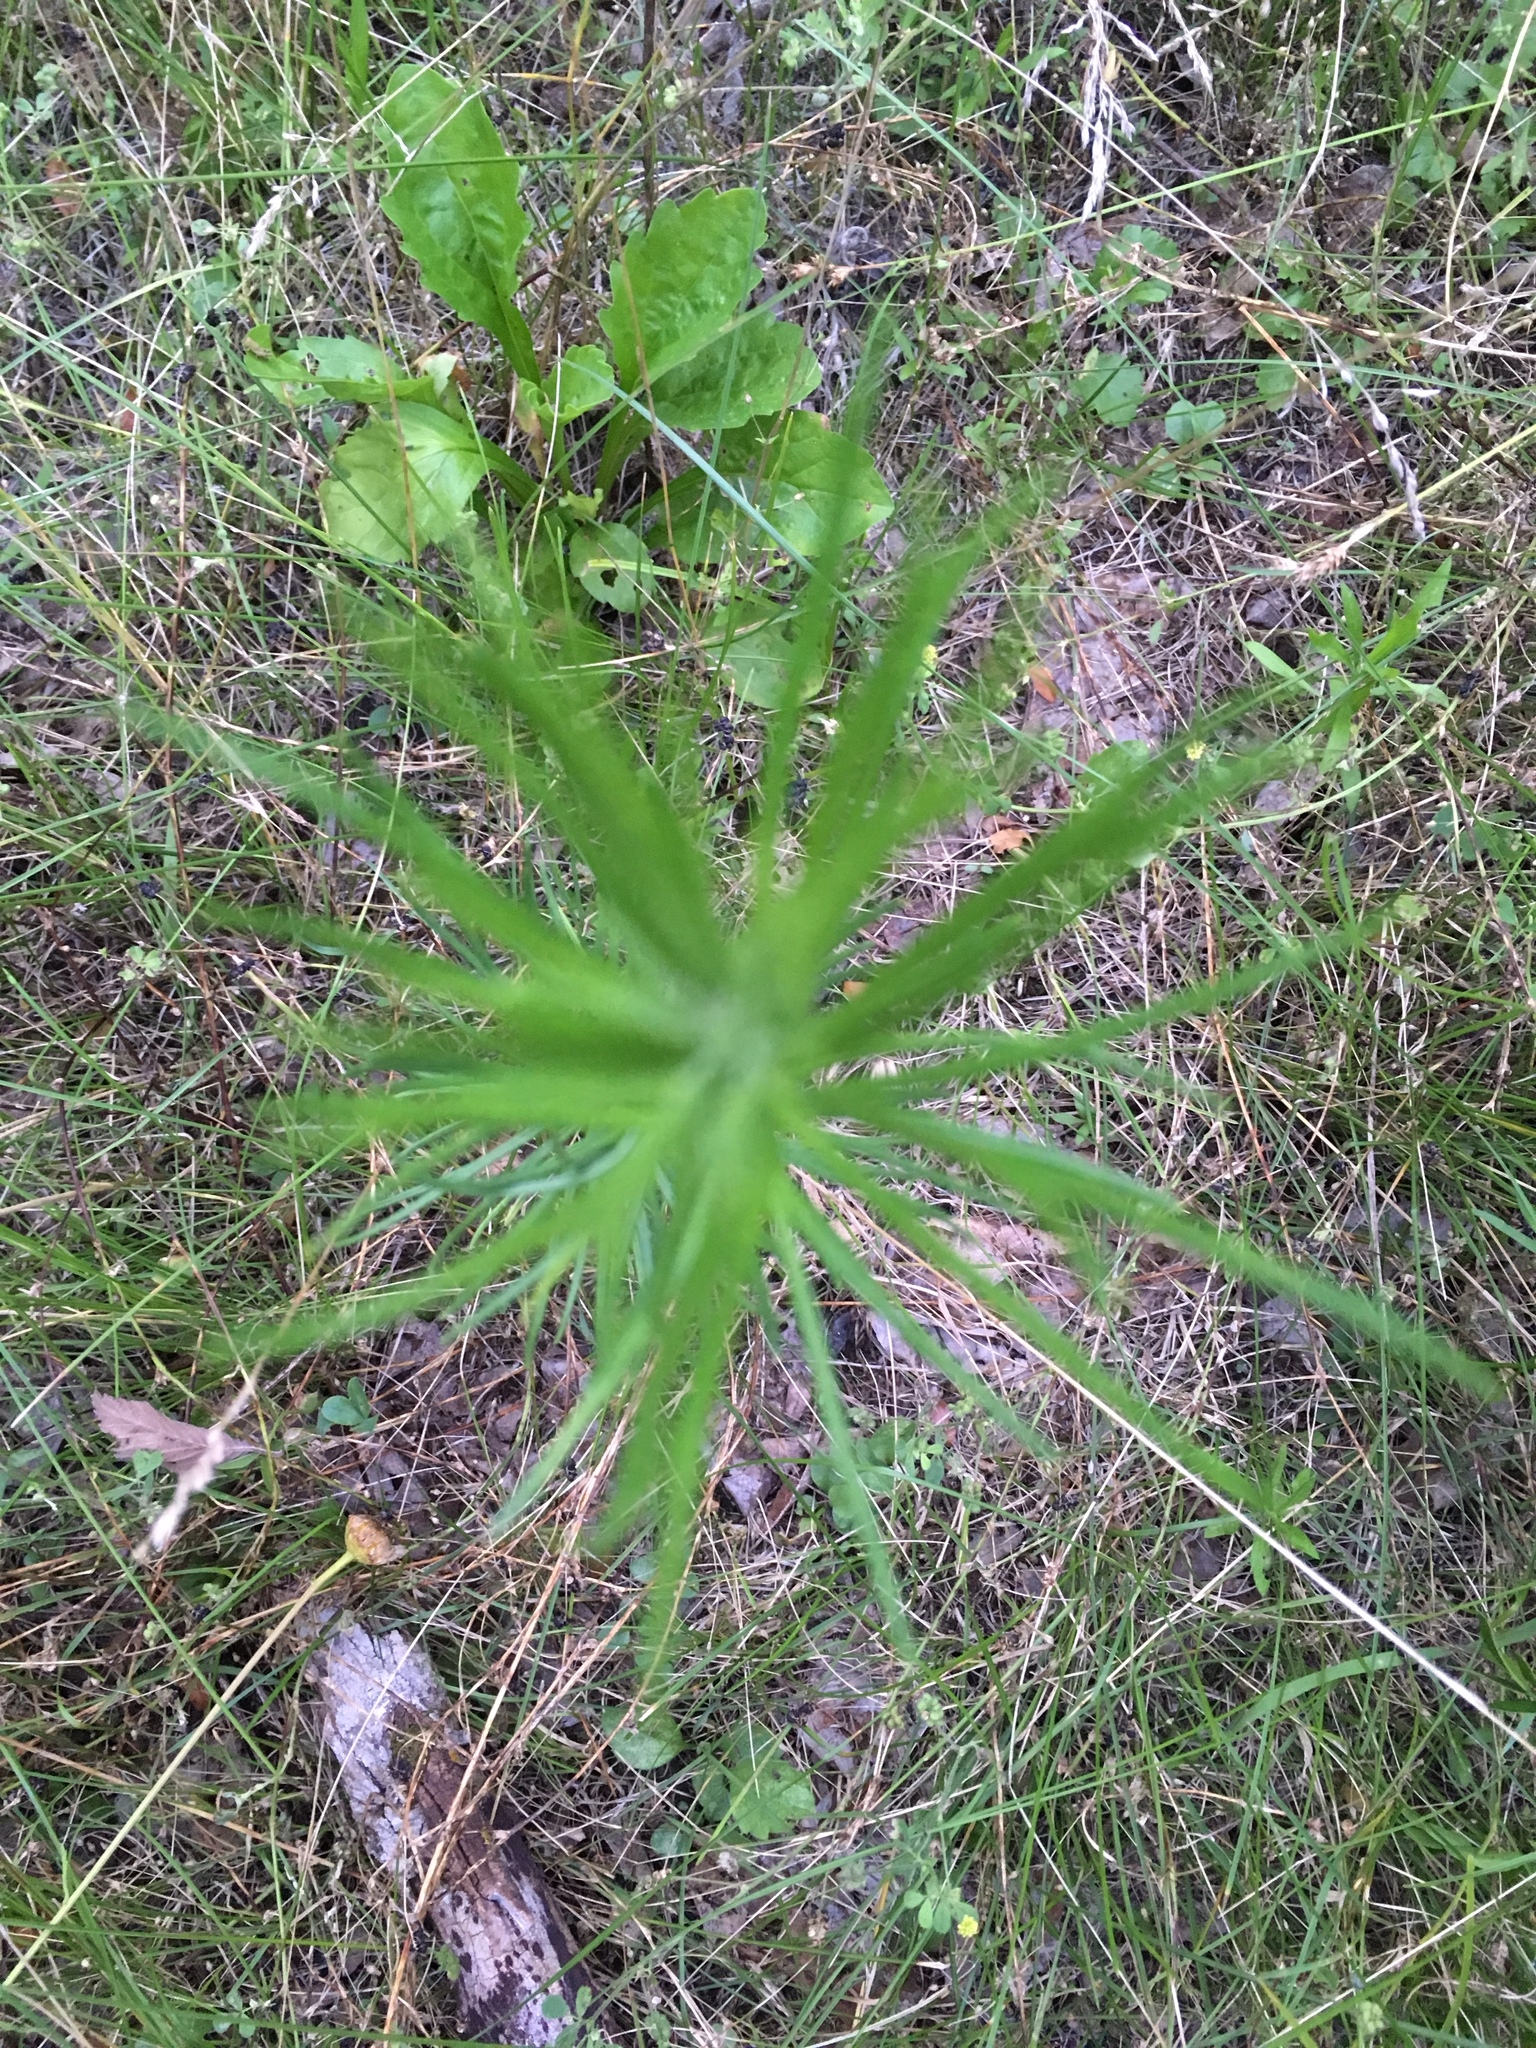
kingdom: Plantae
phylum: Tracheophyta
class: Magnoliopsida
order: Gentianales
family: Apocynaceae
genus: Asclepias
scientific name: Asclepias verticillata
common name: Eastern whorled milkweed
